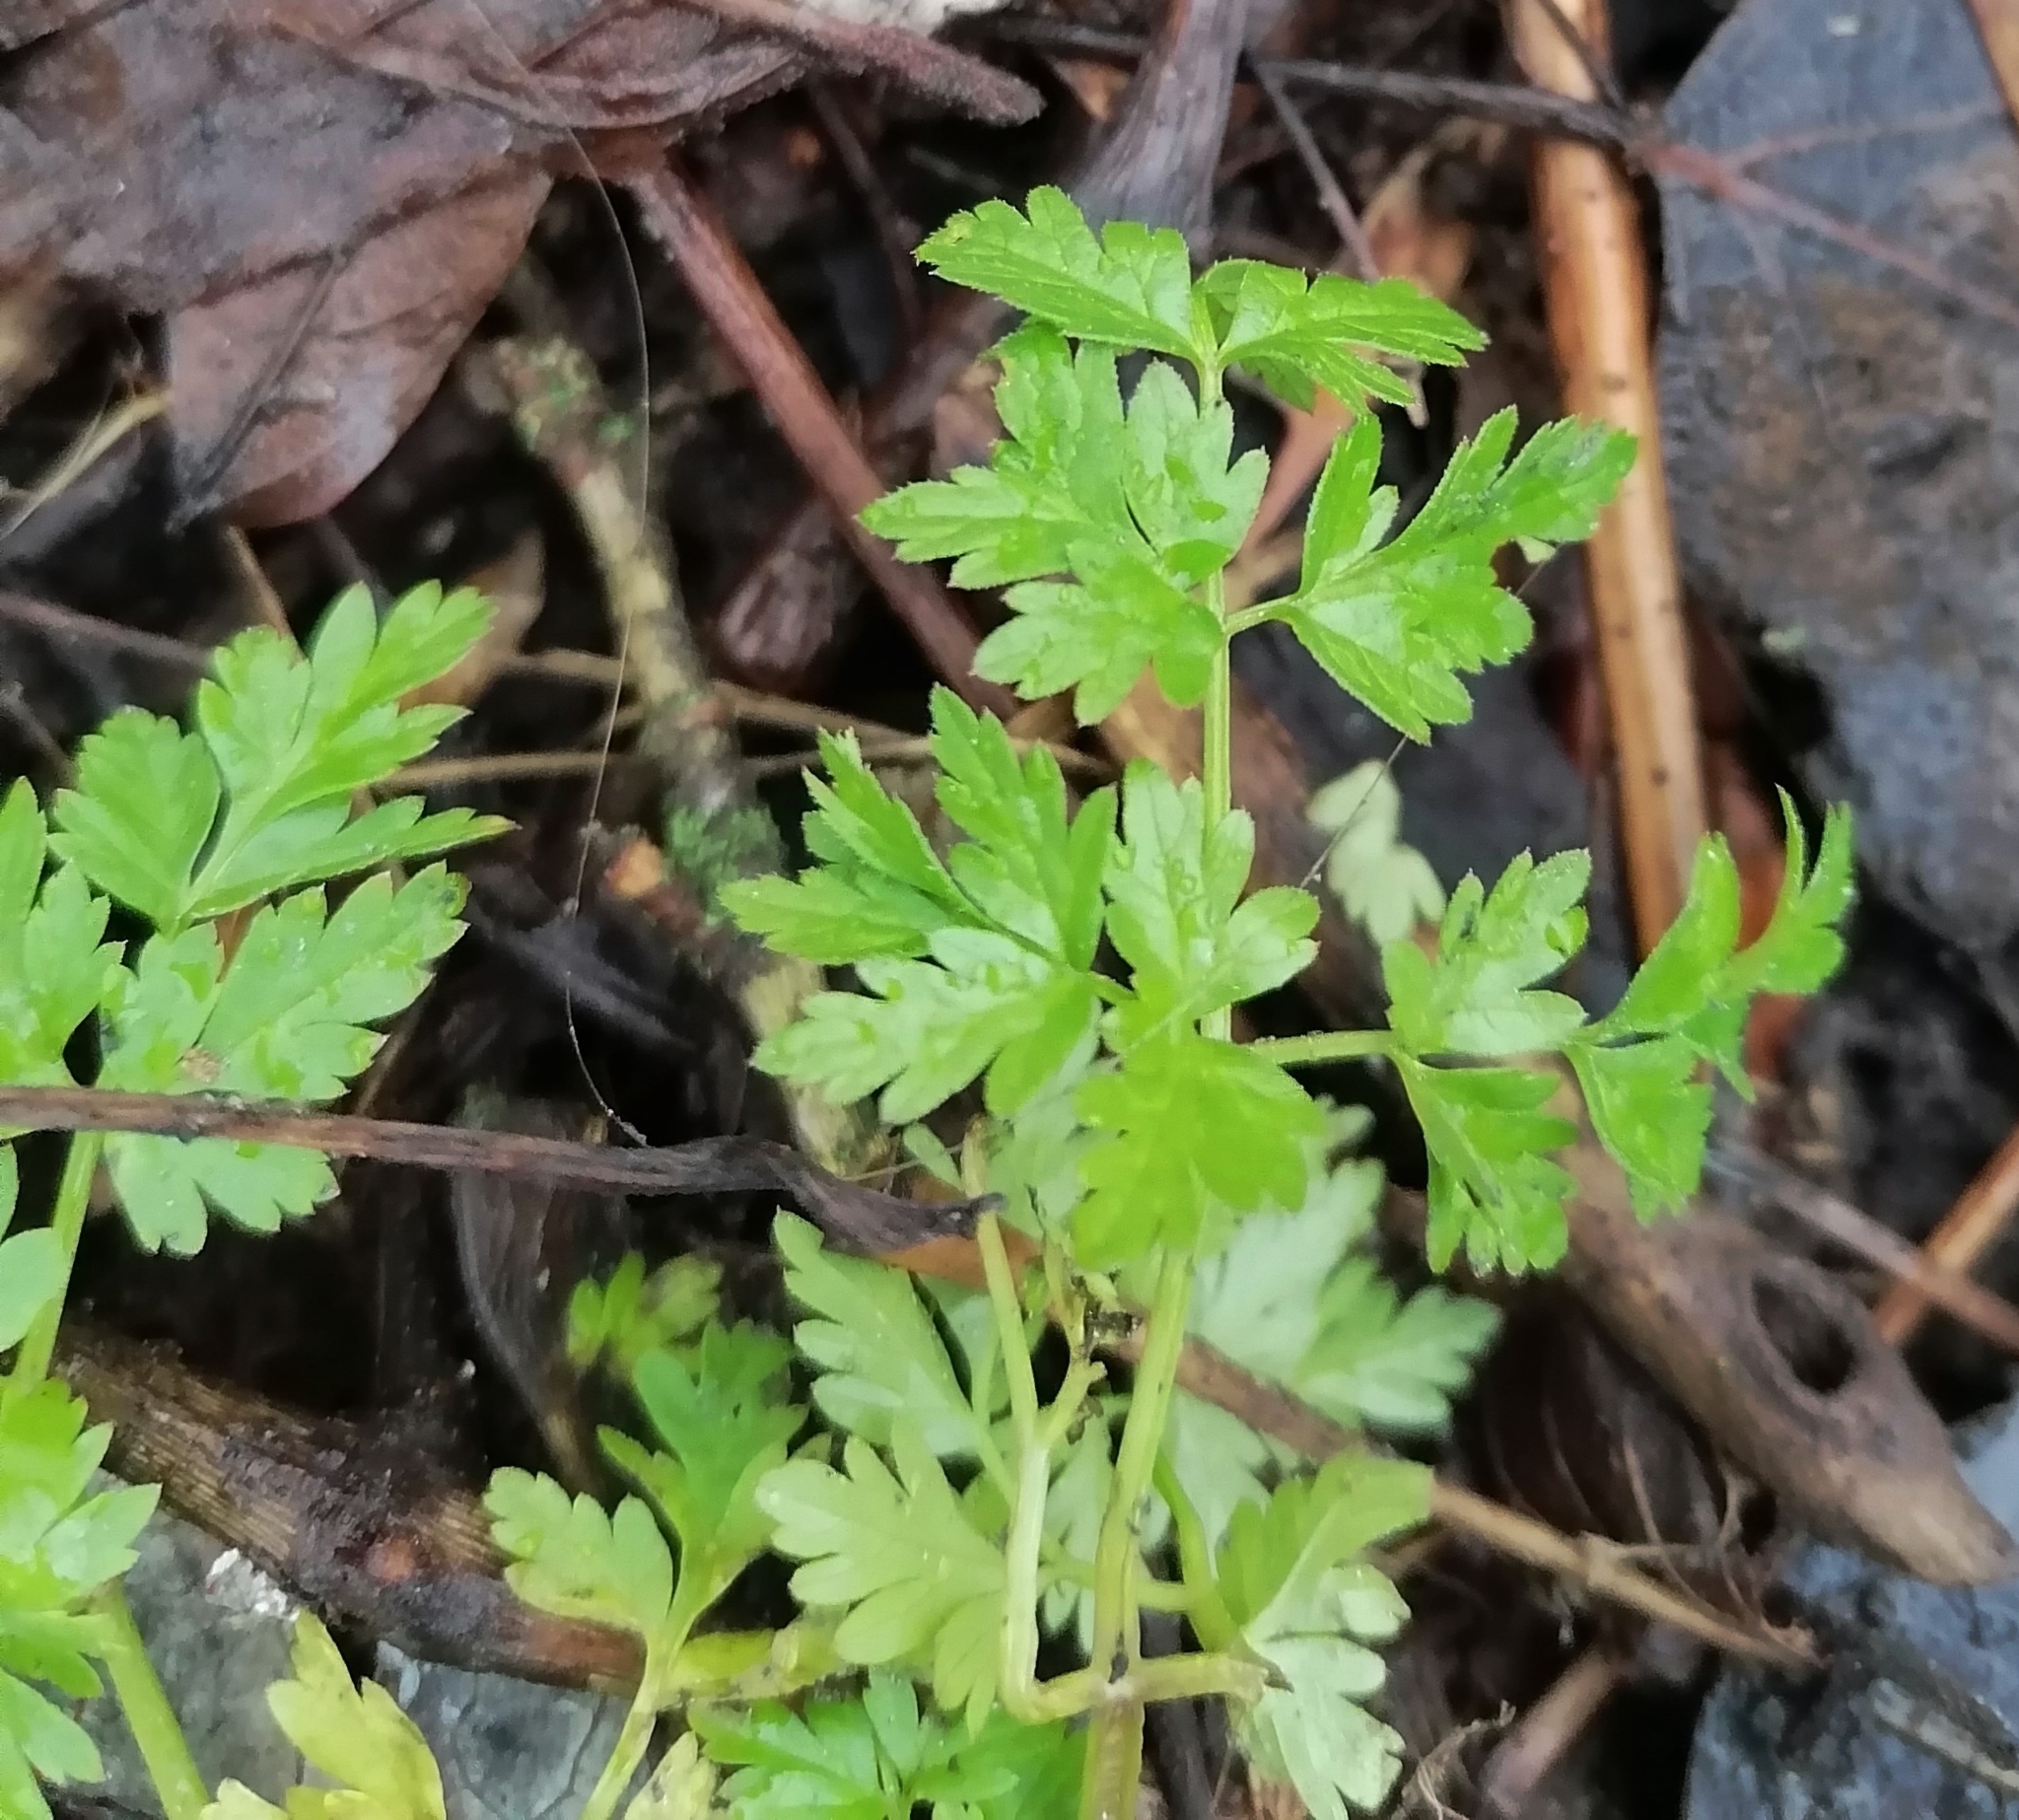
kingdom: Plantae
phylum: Tracheophyta
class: Magnoliopsida
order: Apiales
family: Apiaceae
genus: Anthriscus
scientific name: Anthriscus cerefolium
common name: Garden chervil
